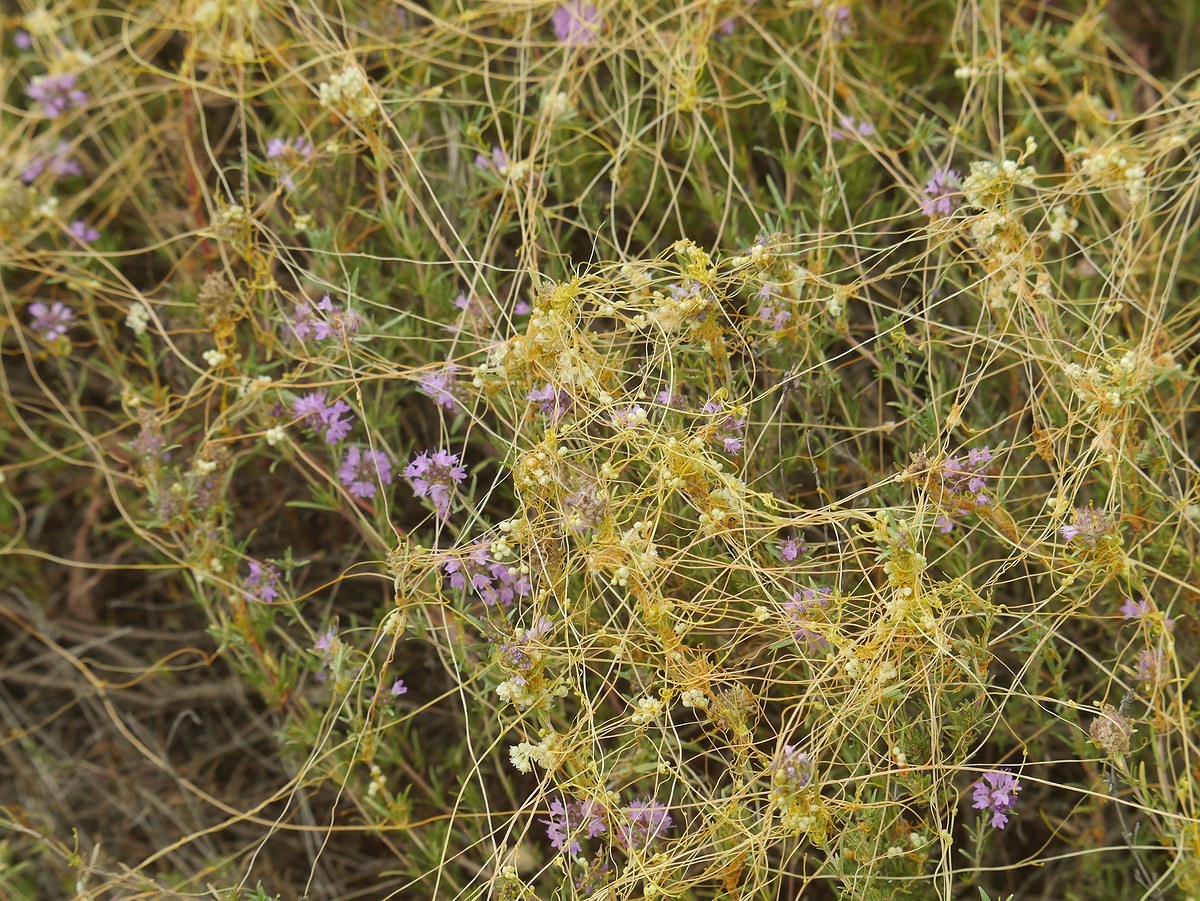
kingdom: Plantae
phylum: Tracheophyta
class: Magnoliopsida
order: Solanales
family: Convolvulaceae
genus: Cuscuta
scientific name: Cuscuta australis
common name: Australian dodder
